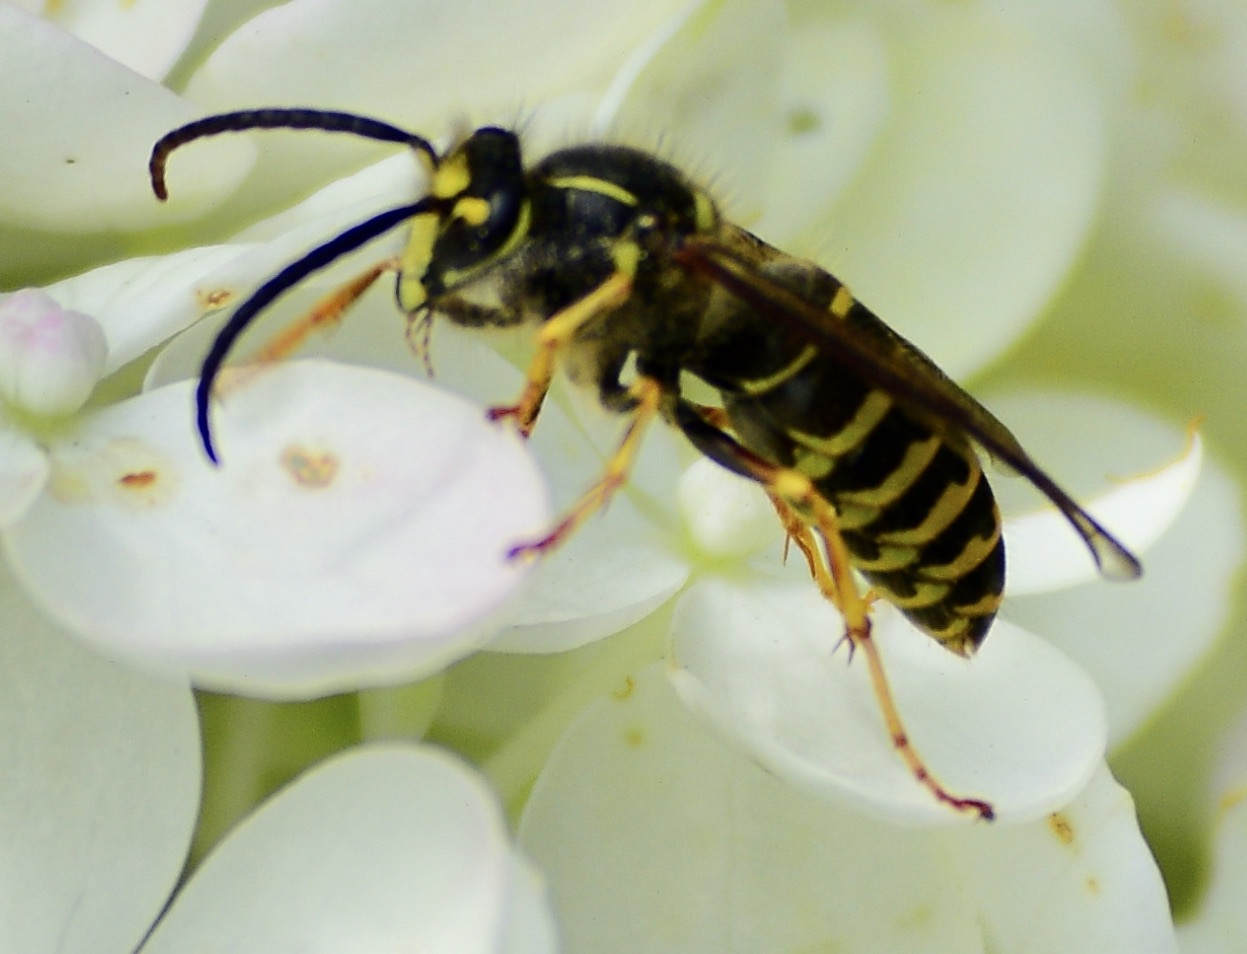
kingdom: Animalia
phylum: Arthropoda
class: Insecta
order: Hymenoptera
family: Vespidae
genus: Dolichovespula
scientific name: Dolichovespula arenaria
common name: Aerial yellowjacket
